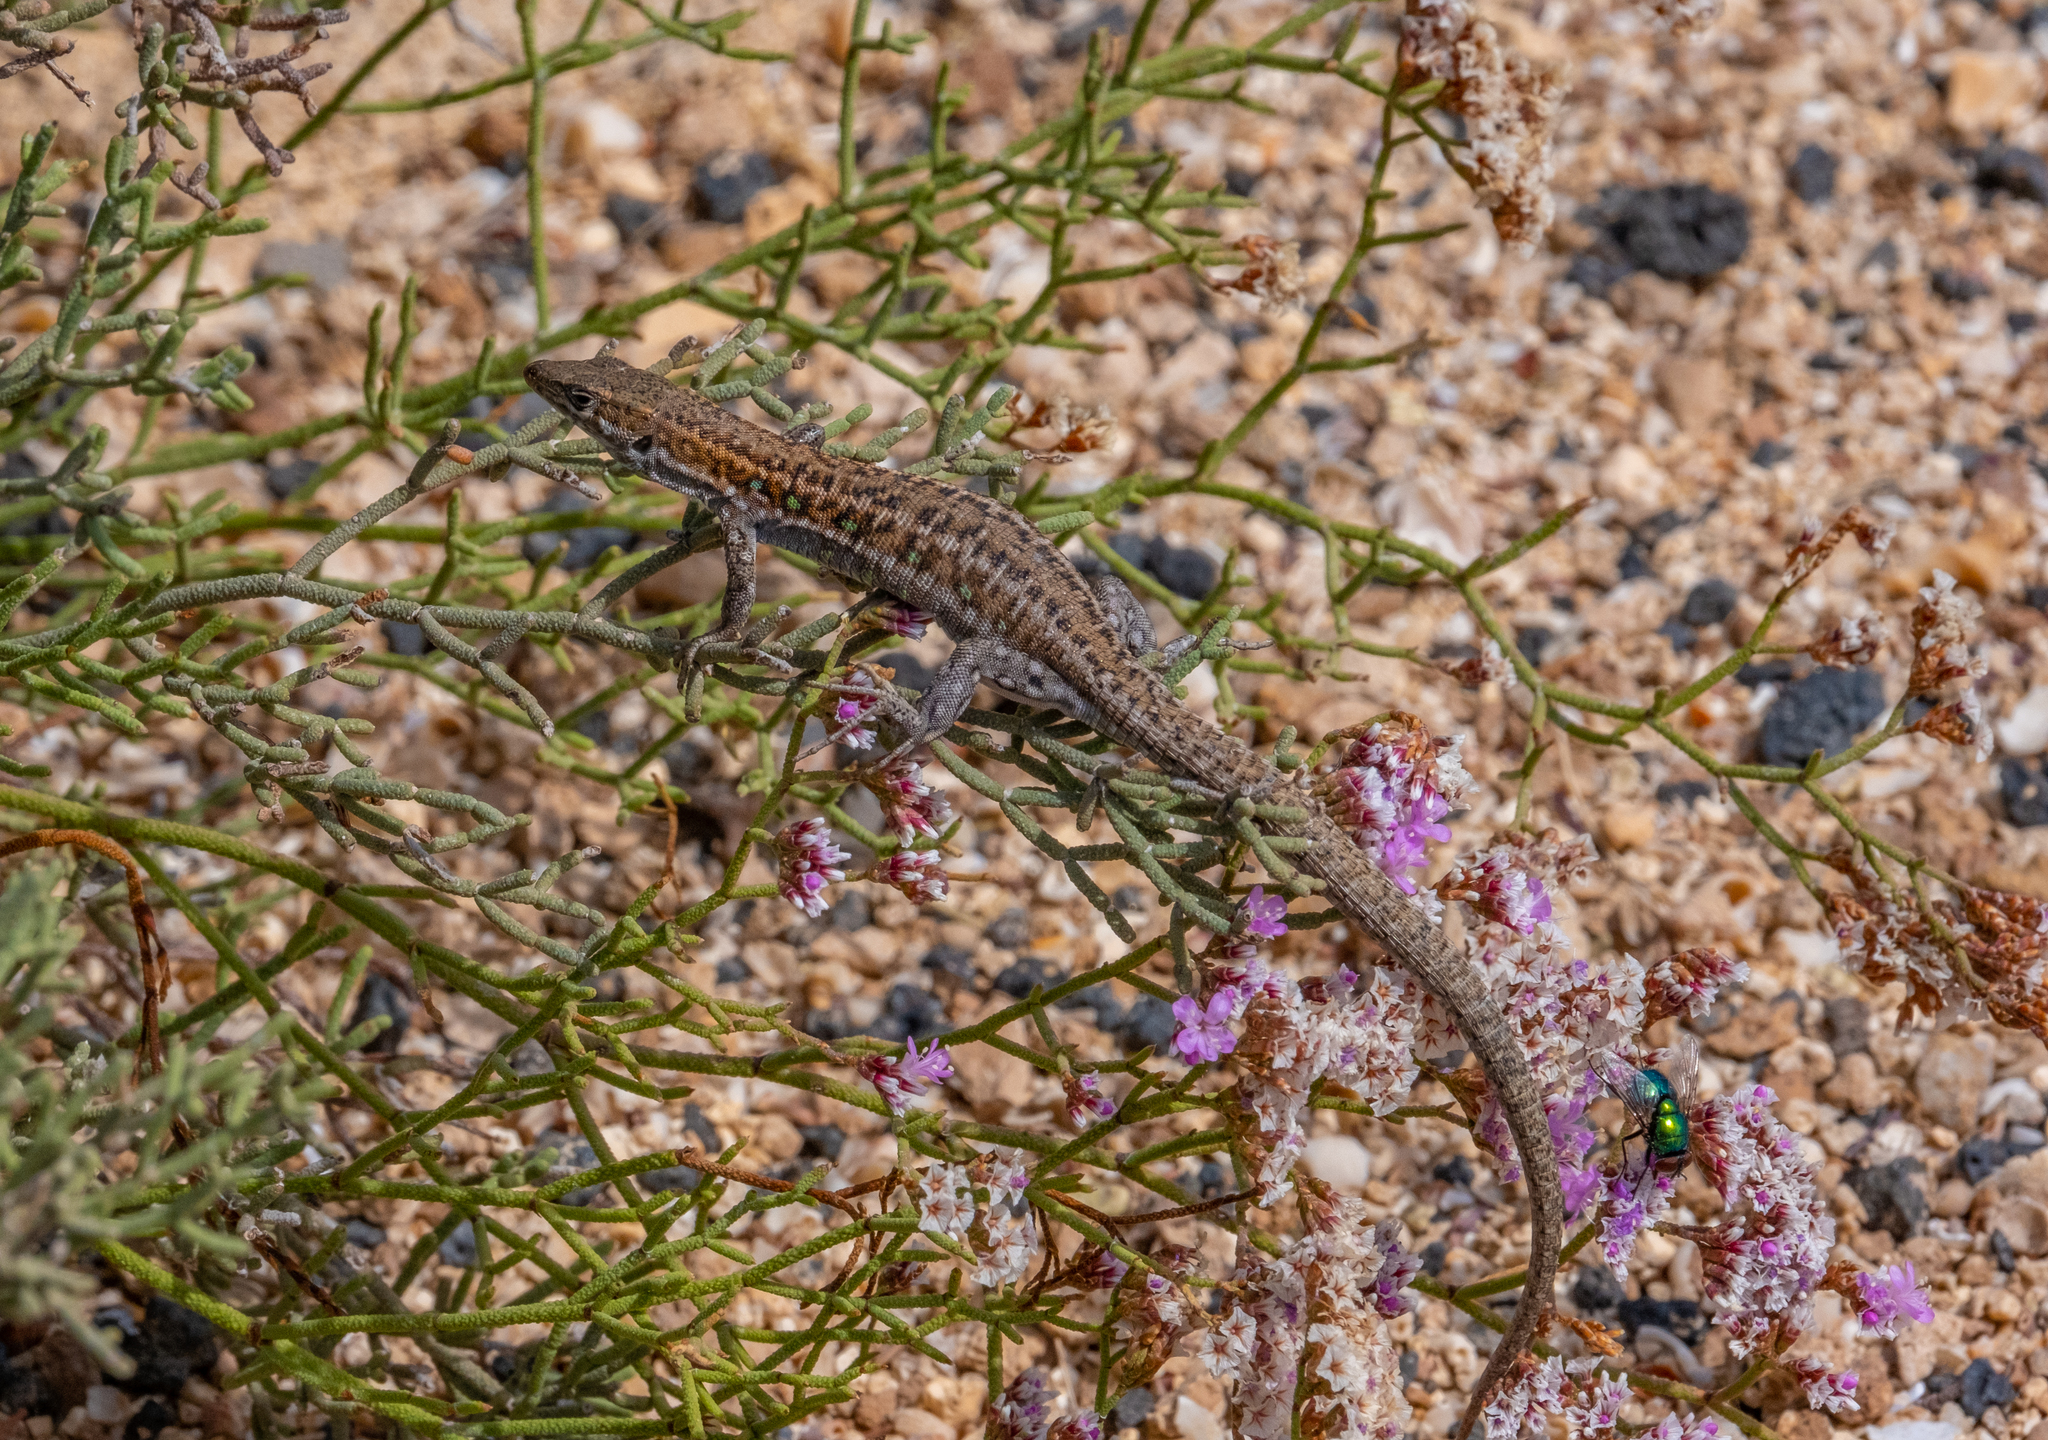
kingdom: Animalia
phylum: Chordata
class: Squamata
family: Lacertidae
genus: Gallotia
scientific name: Gallotia atlantica
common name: Atlantic lizard
